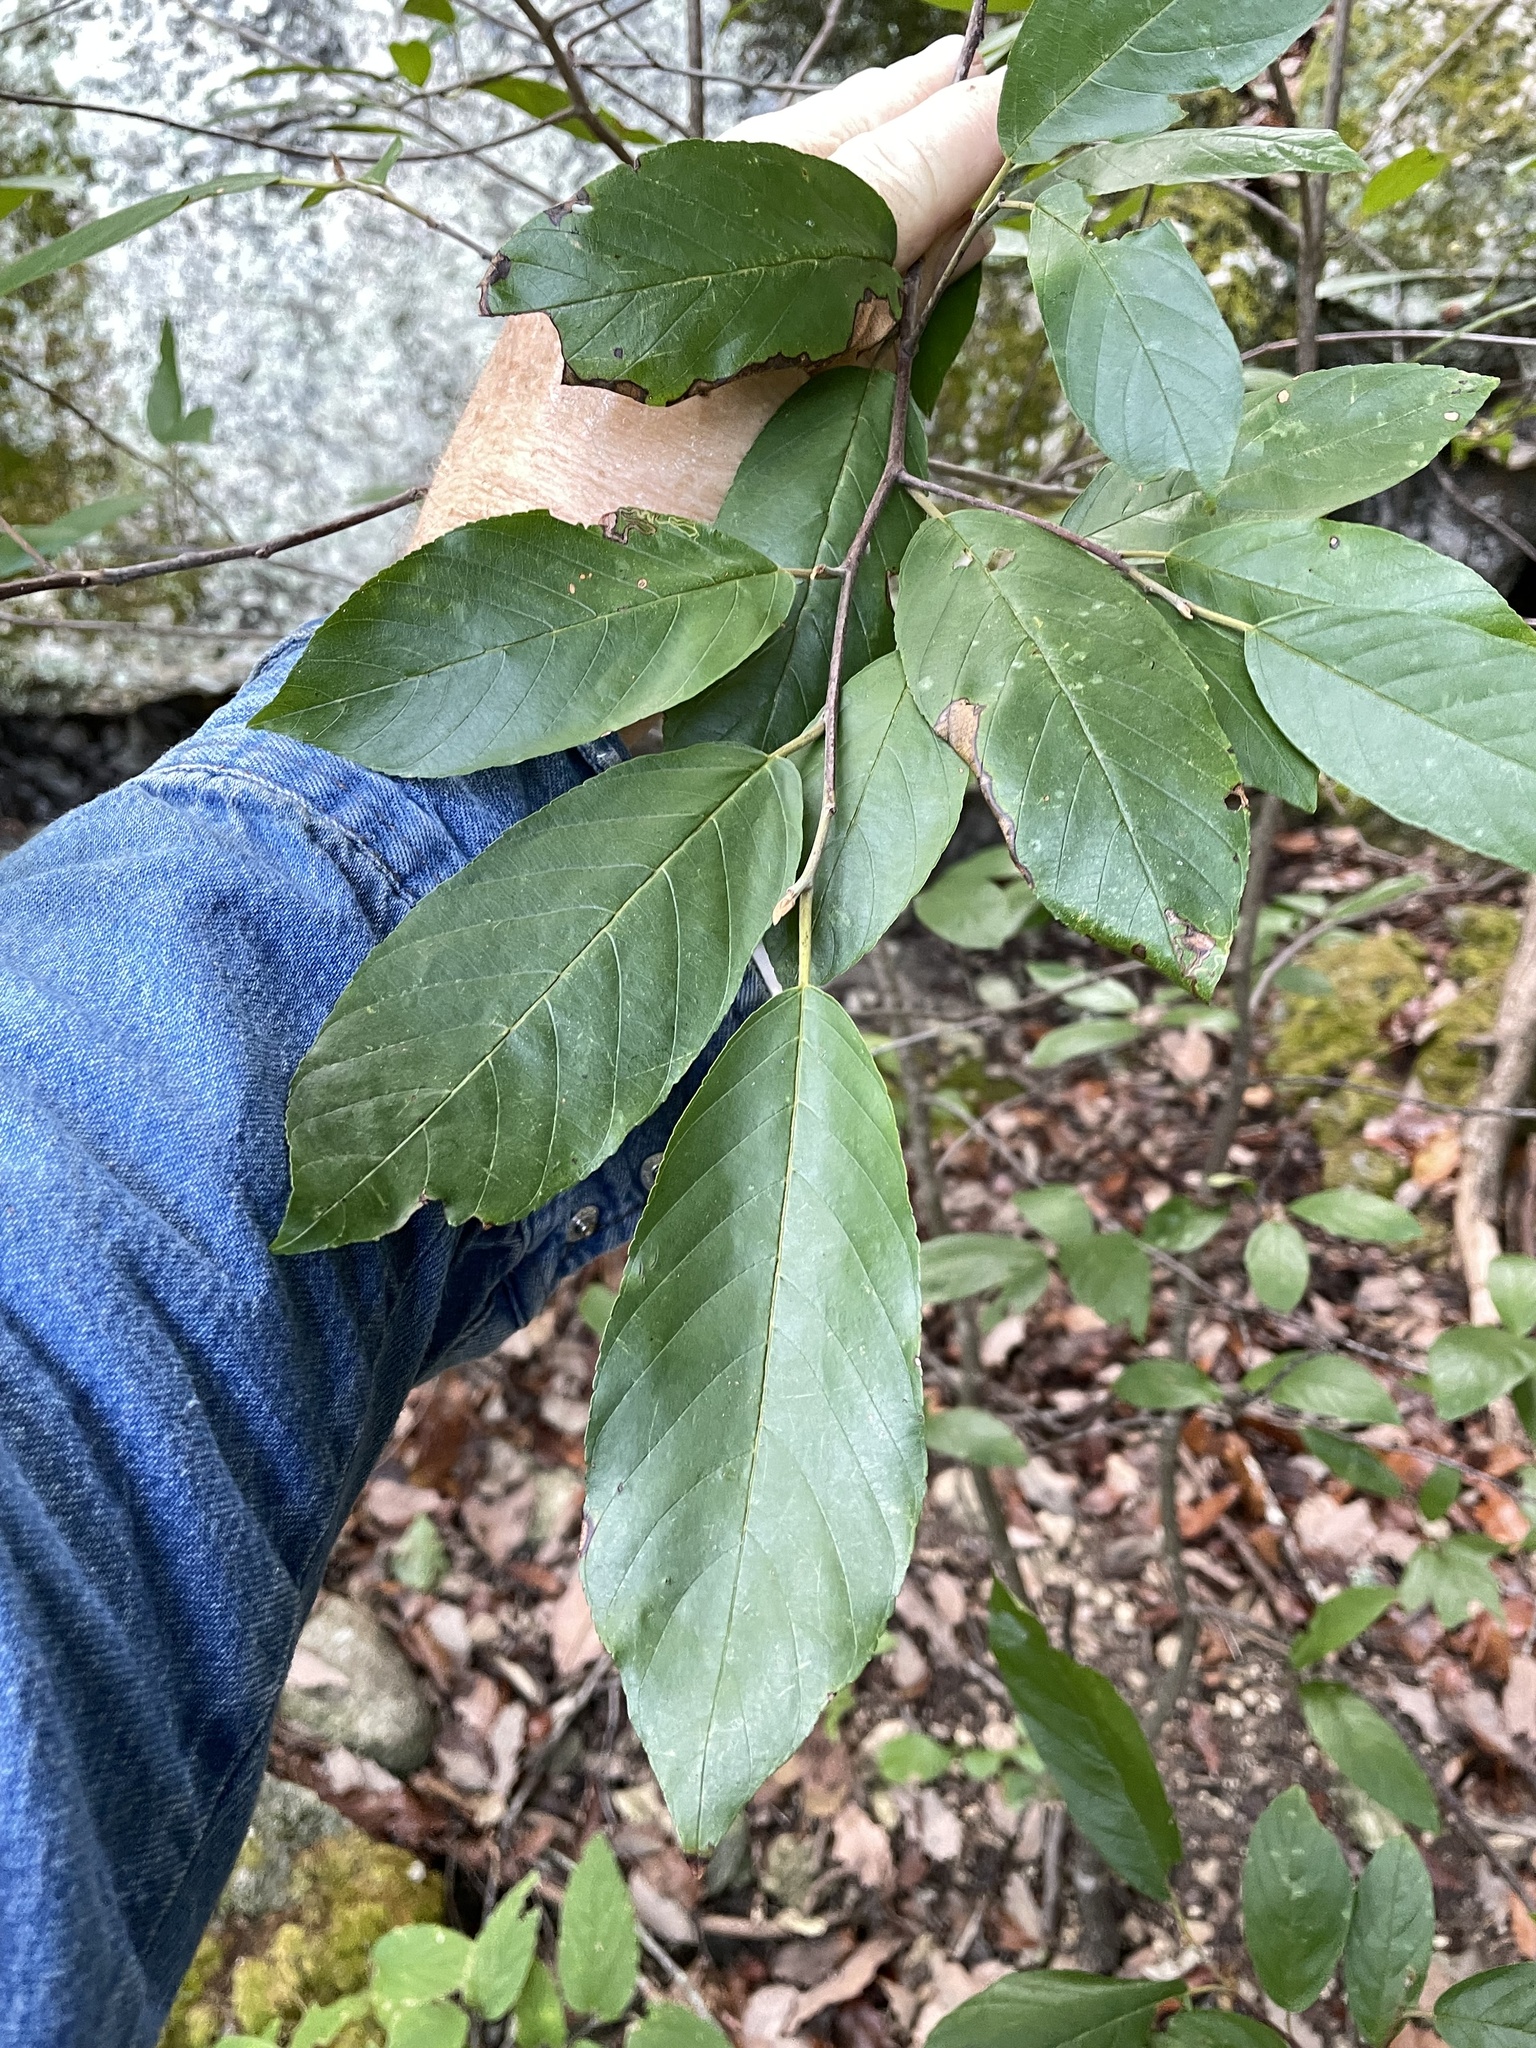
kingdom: Plantae
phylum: Tracheophyta
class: Magnoliopsida
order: Rosales
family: Rhamnaceae
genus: Frangula
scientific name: Frangula caroliniana
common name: Carolina buckthorn
